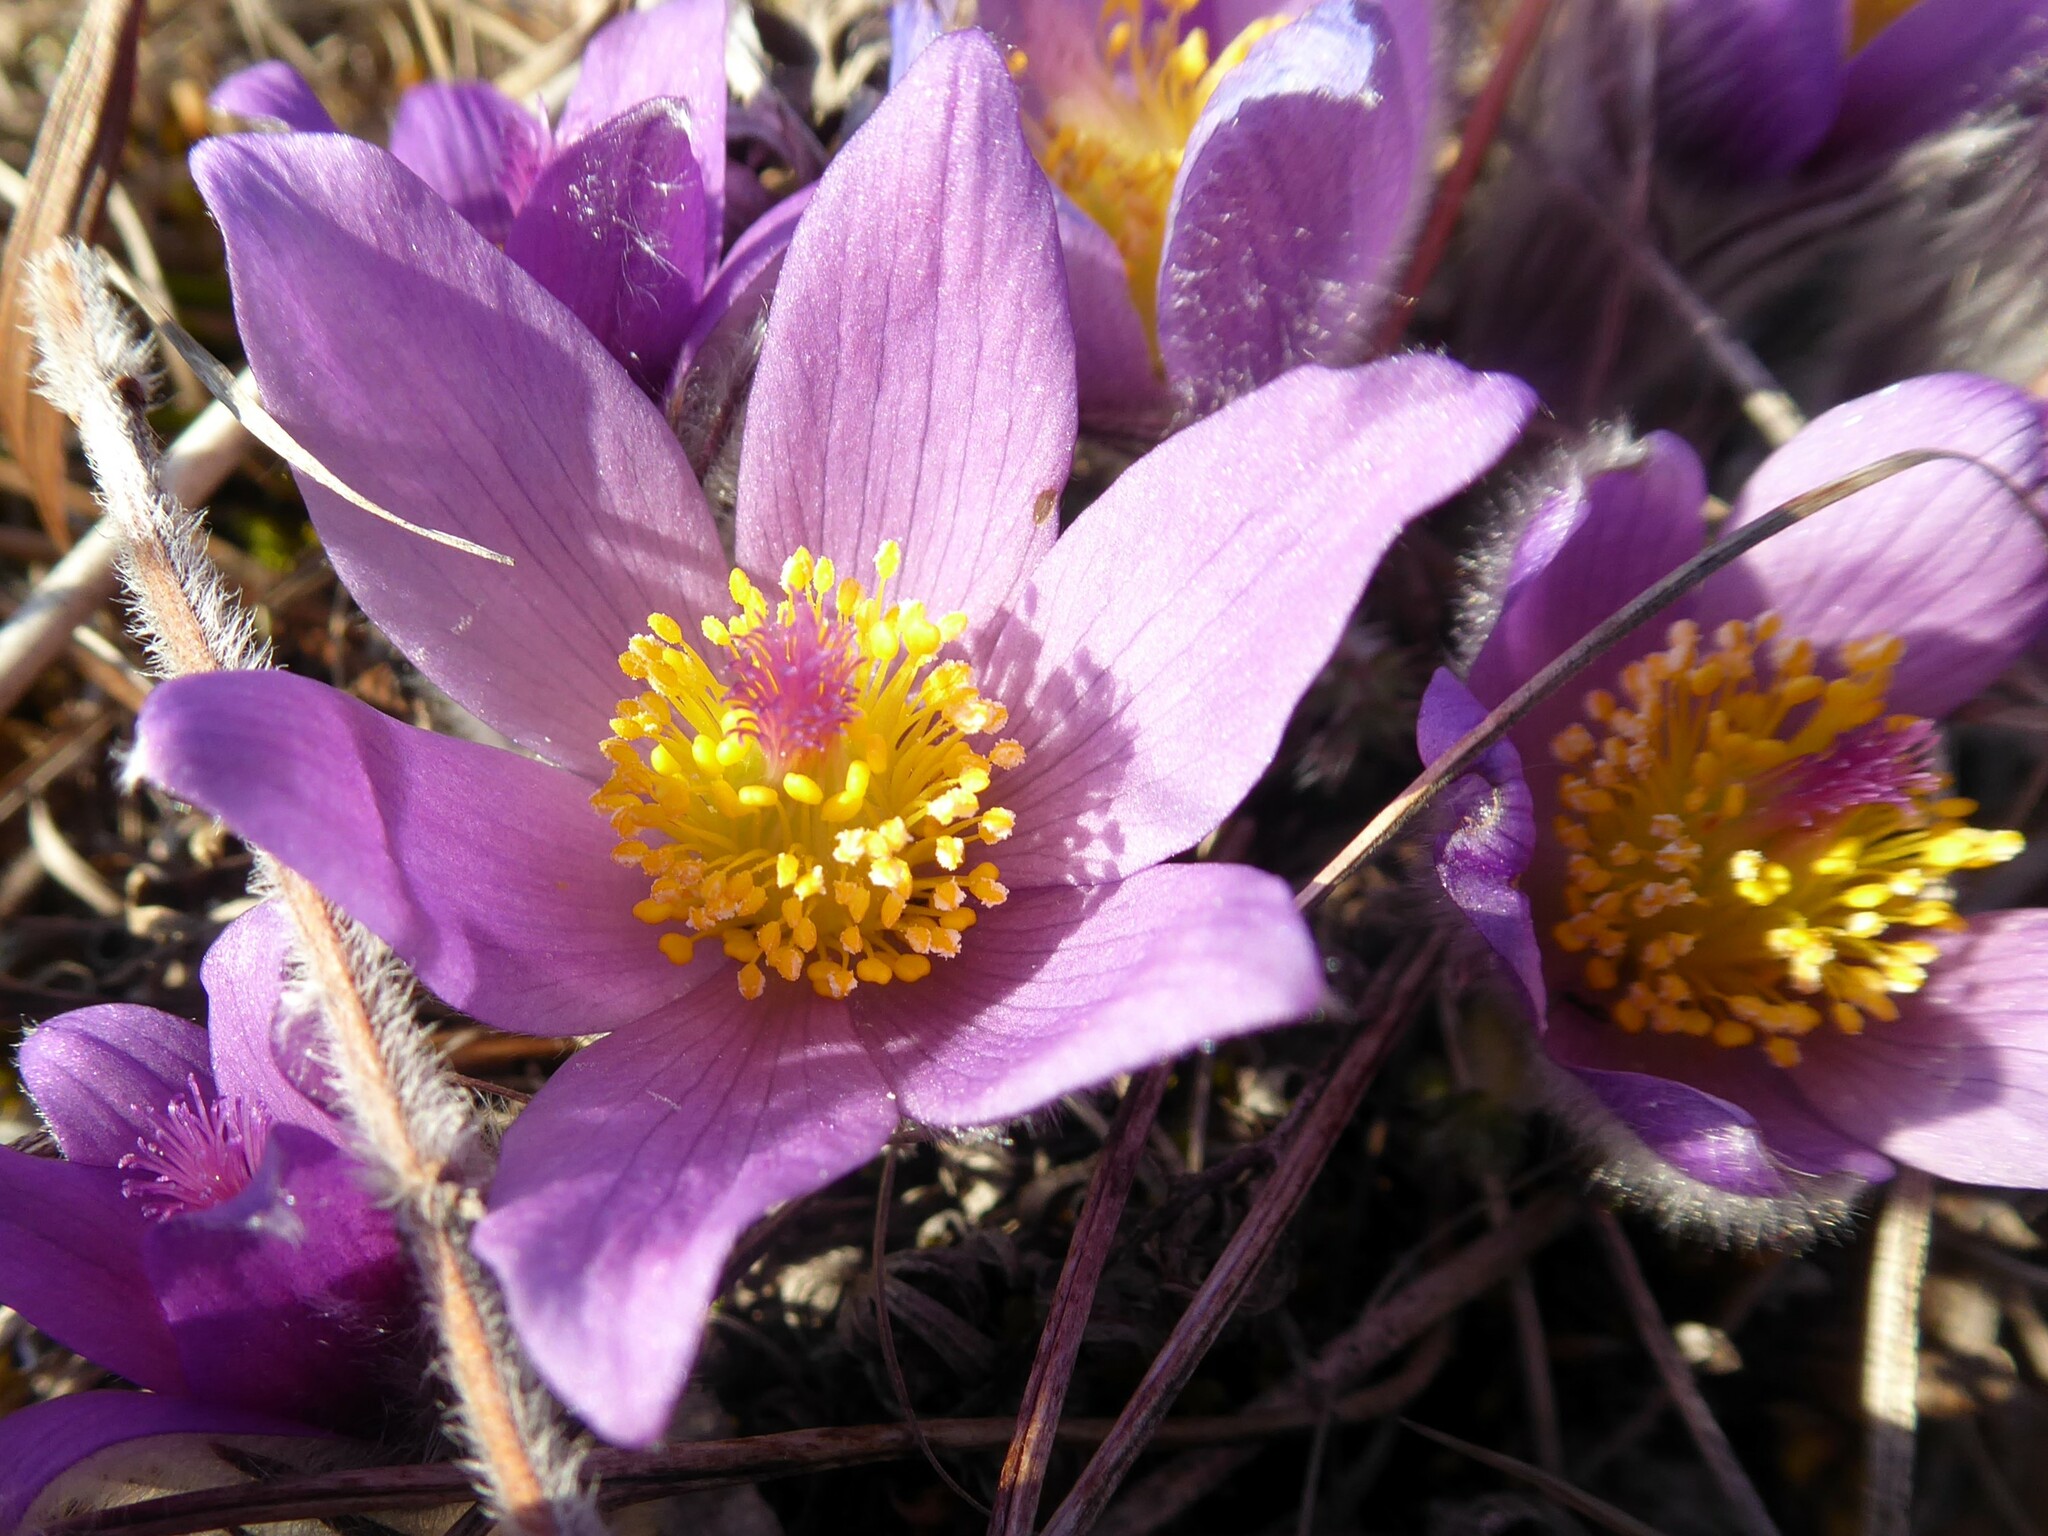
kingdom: Plantae
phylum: Tracheophyta
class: Magnoliopsida
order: Ranunculales
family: Ranunculaceae
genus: Pulsatilla
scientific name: Pulsatilla grandis
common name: Greater pasque flower
